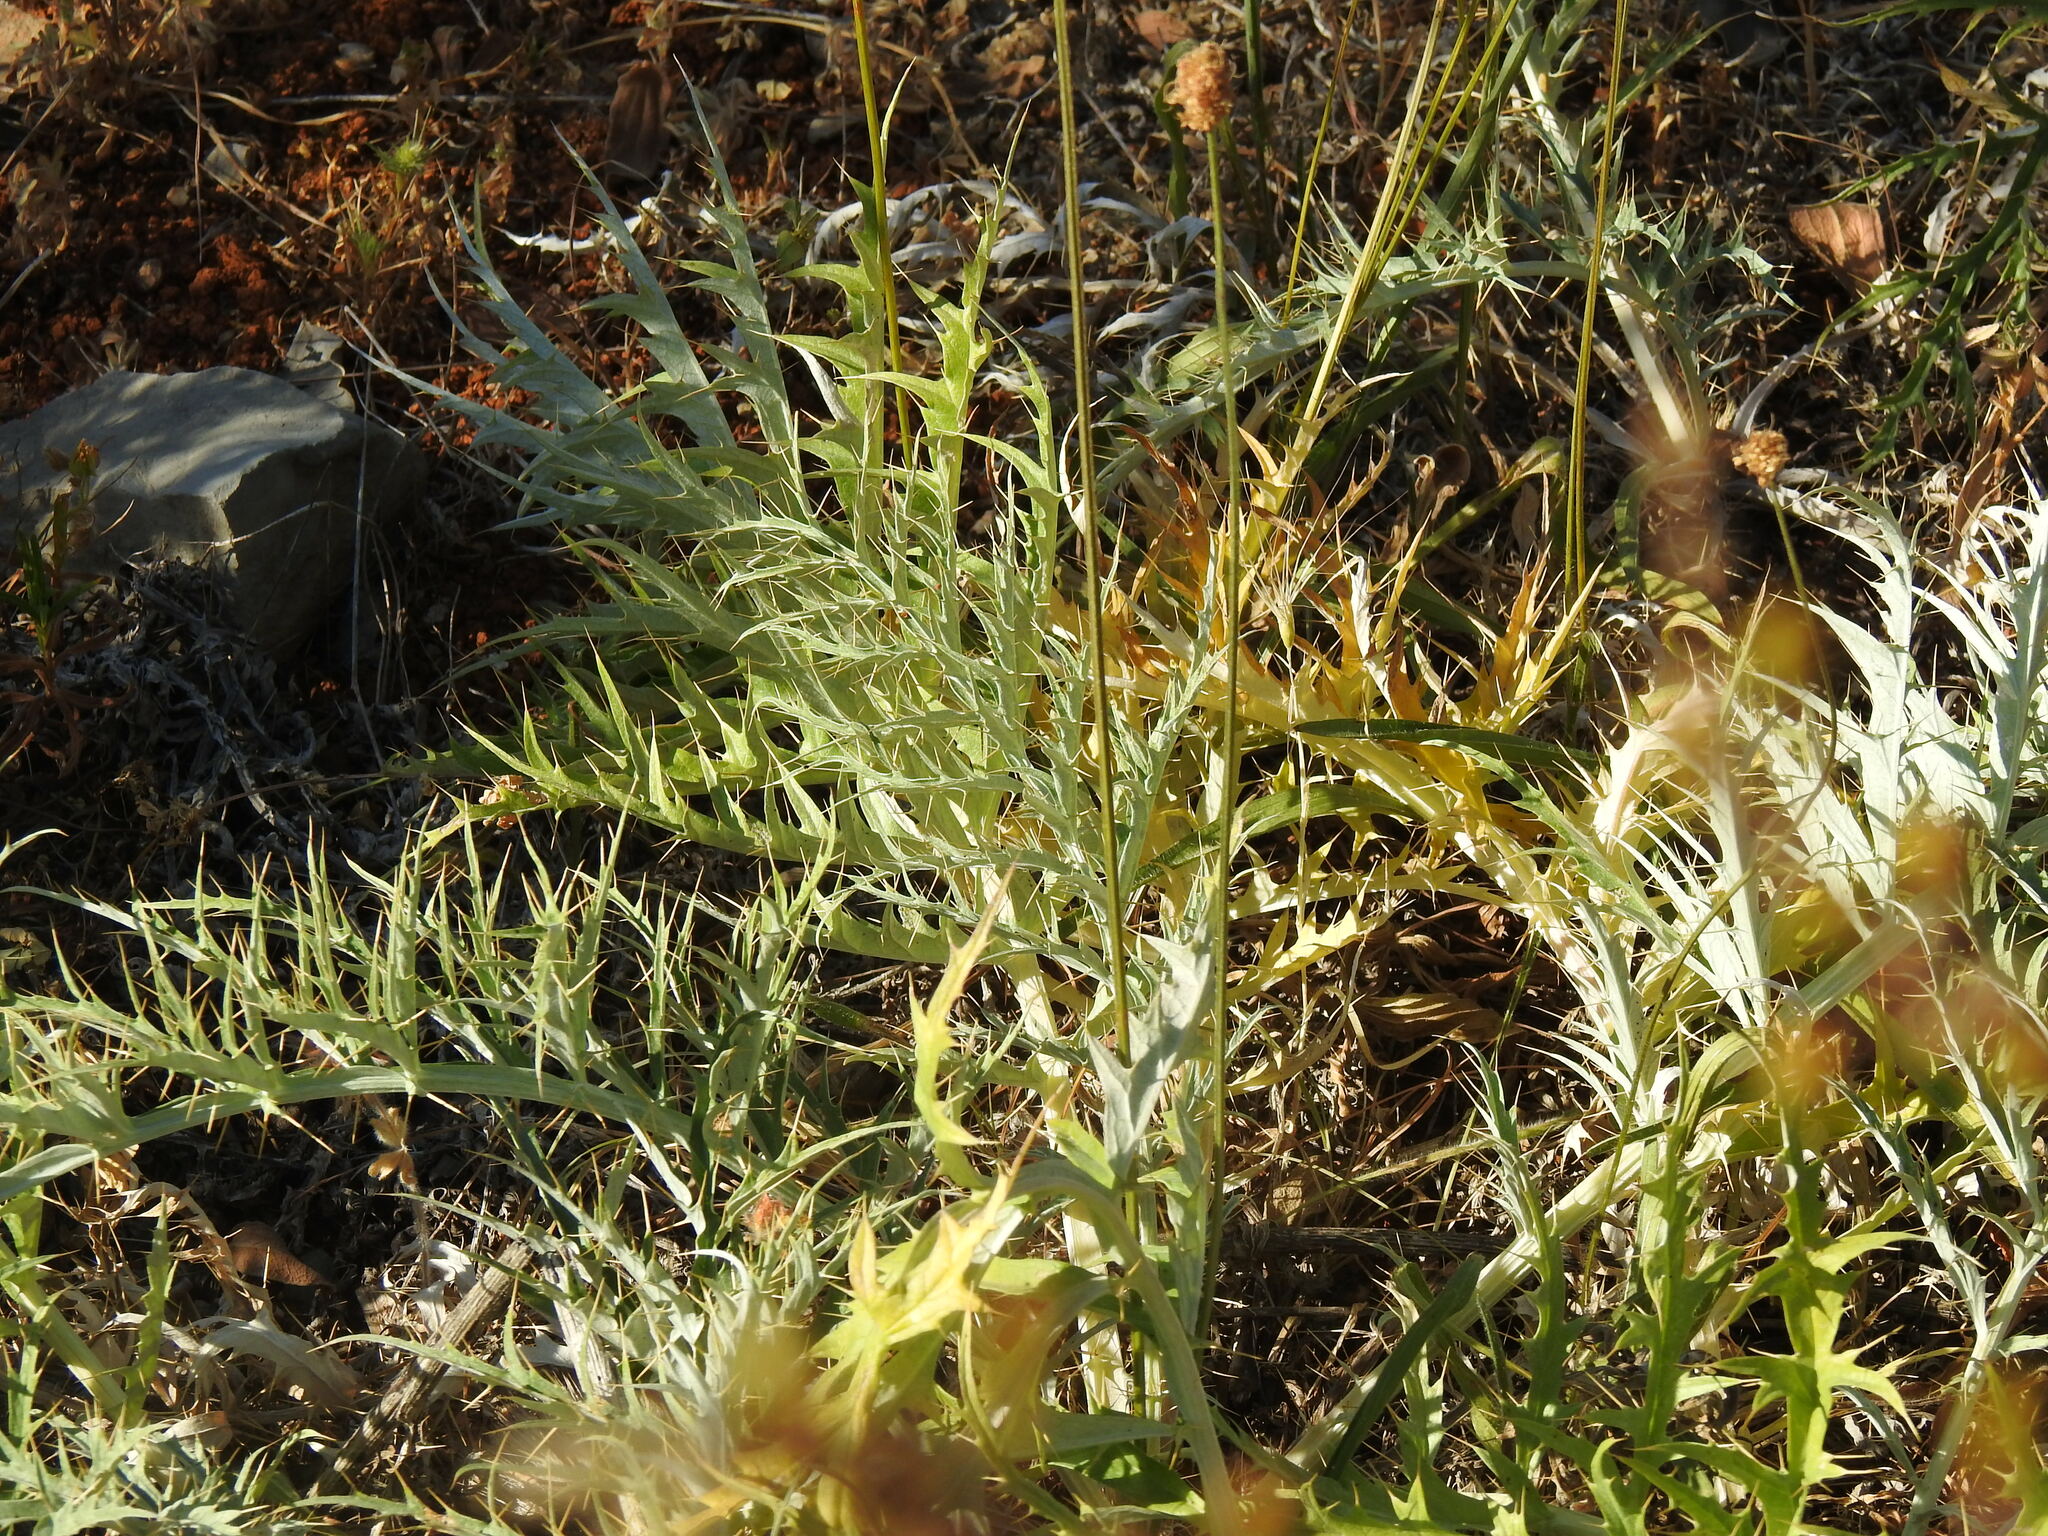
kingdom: Plantae
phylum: Tracheophyta
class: Magnoliopsida
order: Asterales
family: Asteraceae
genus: Cynara
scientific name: Cynara cardunculus
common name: Globe artichoke
